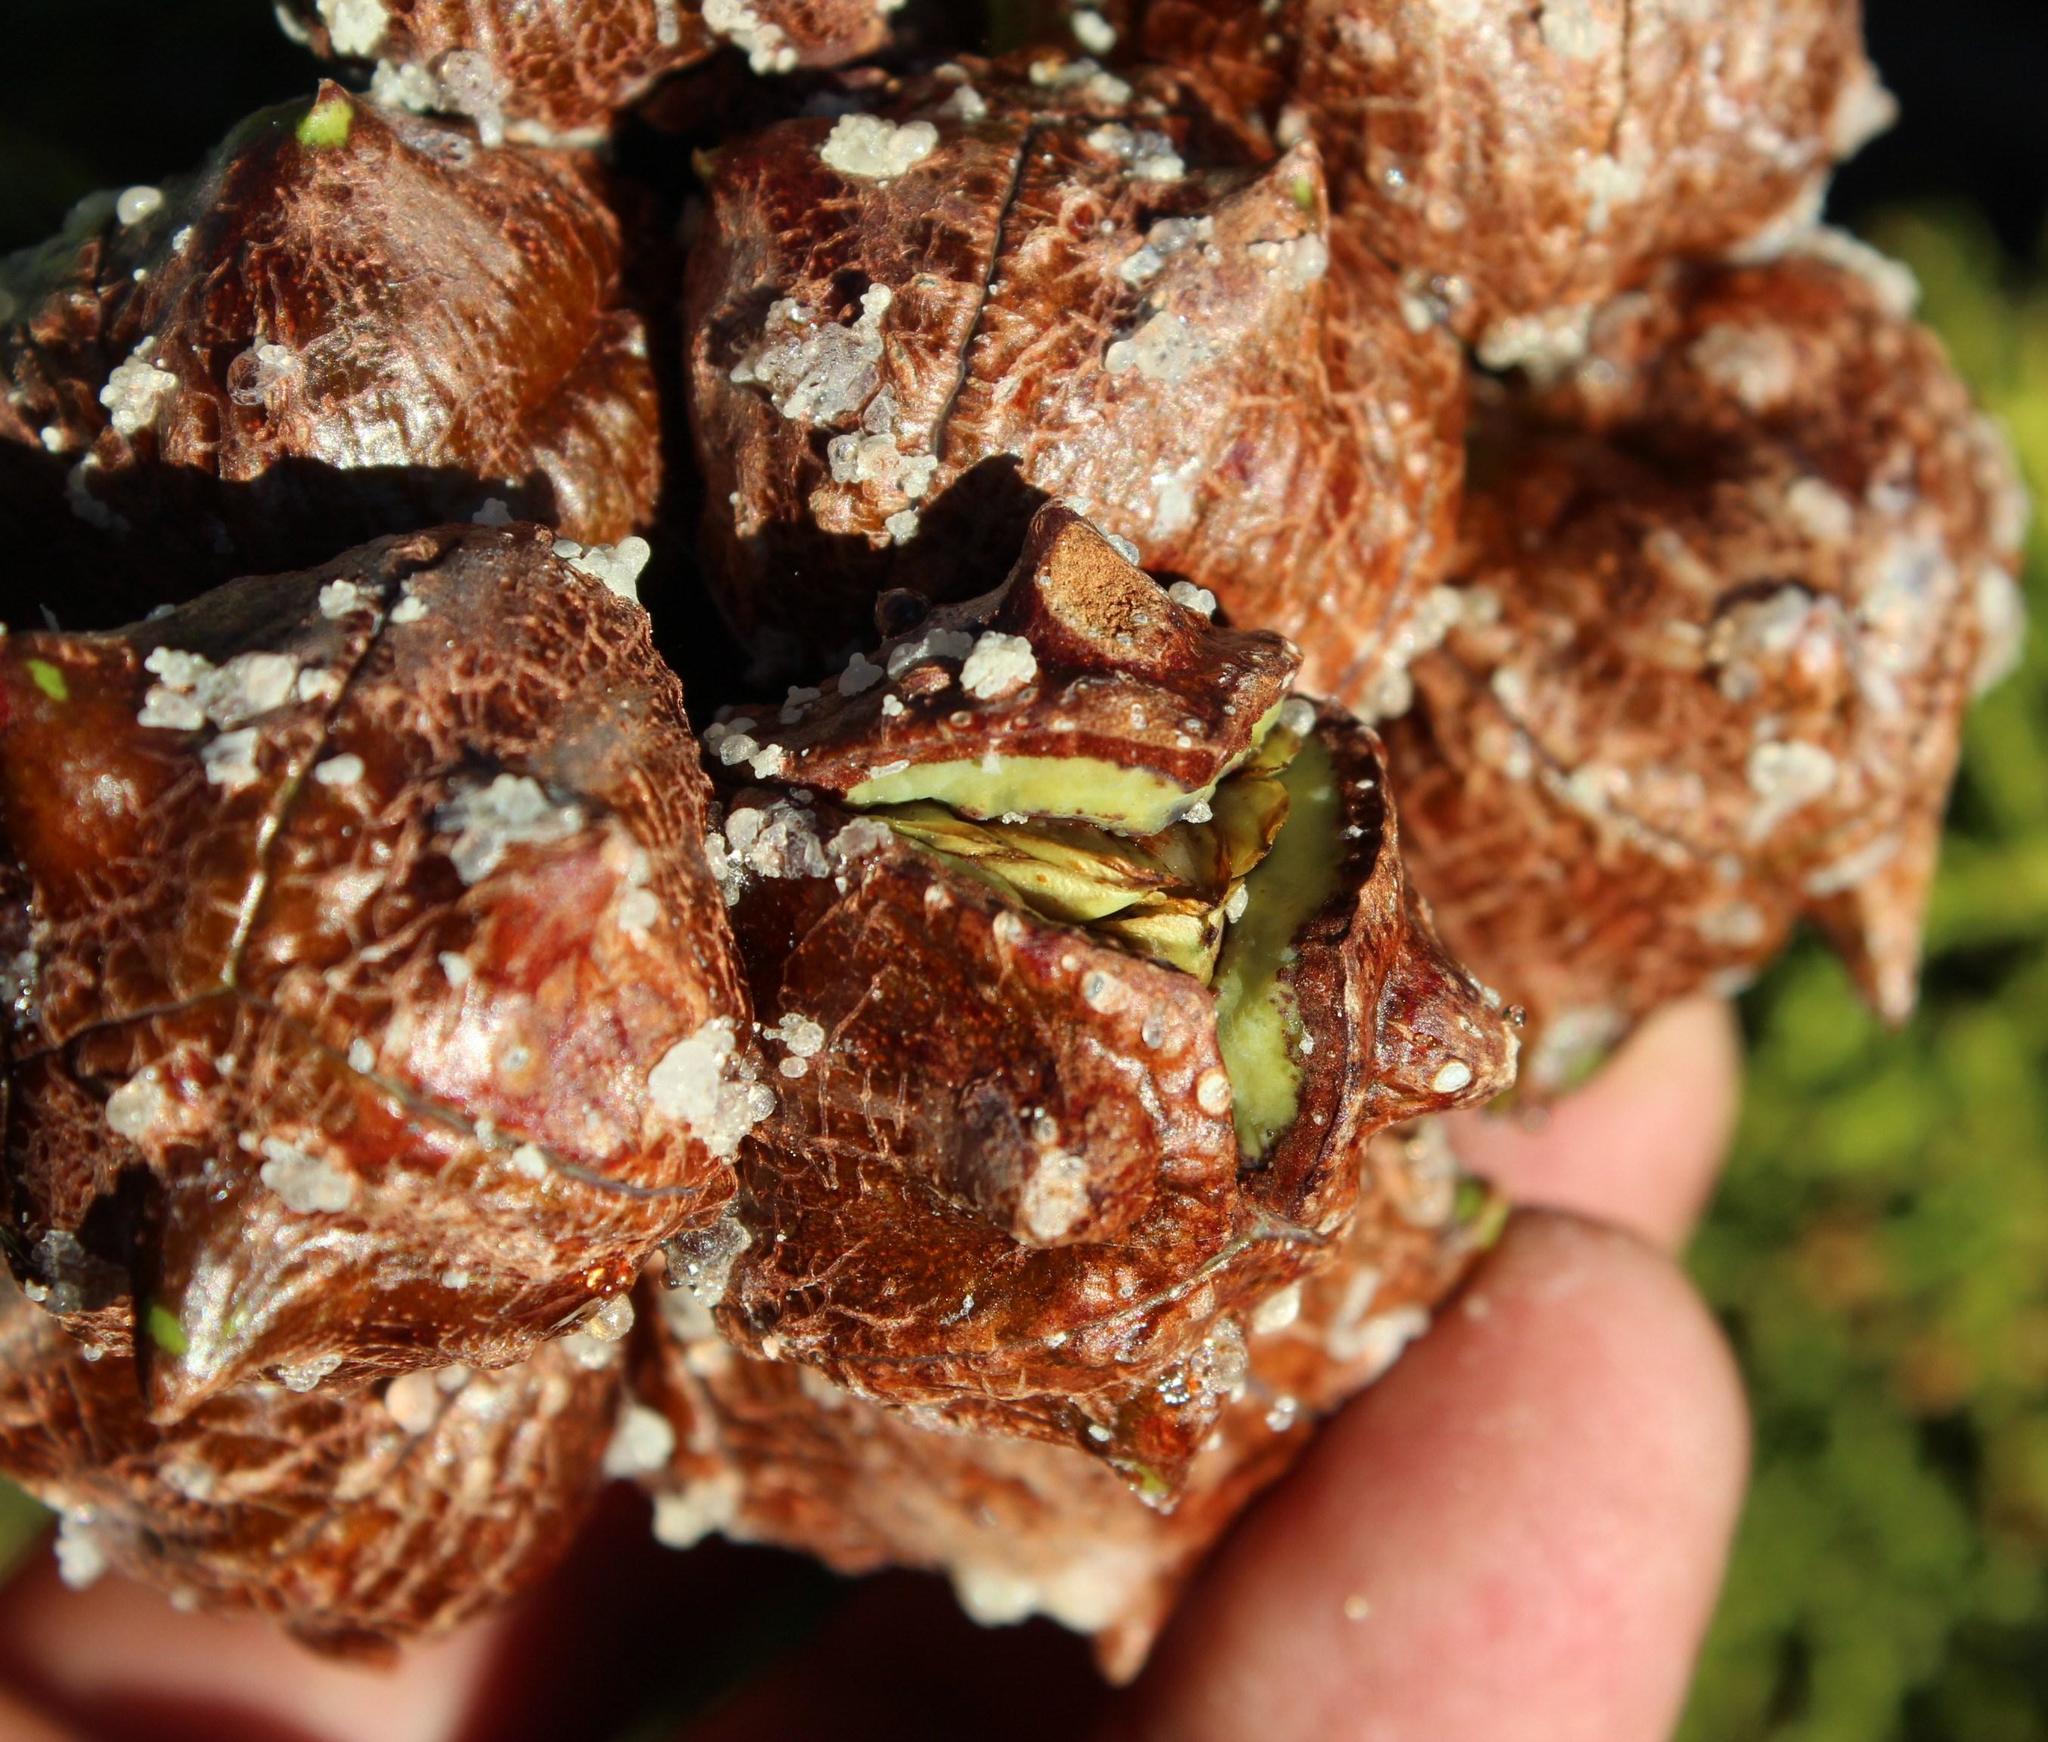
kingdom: Plantae
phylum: Tracheophyta
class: Pinopsida
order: Pinales
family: Cupressaceae
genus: Widdringtonia
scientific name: Widdringtonia nodiflora
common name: Cape cypress
